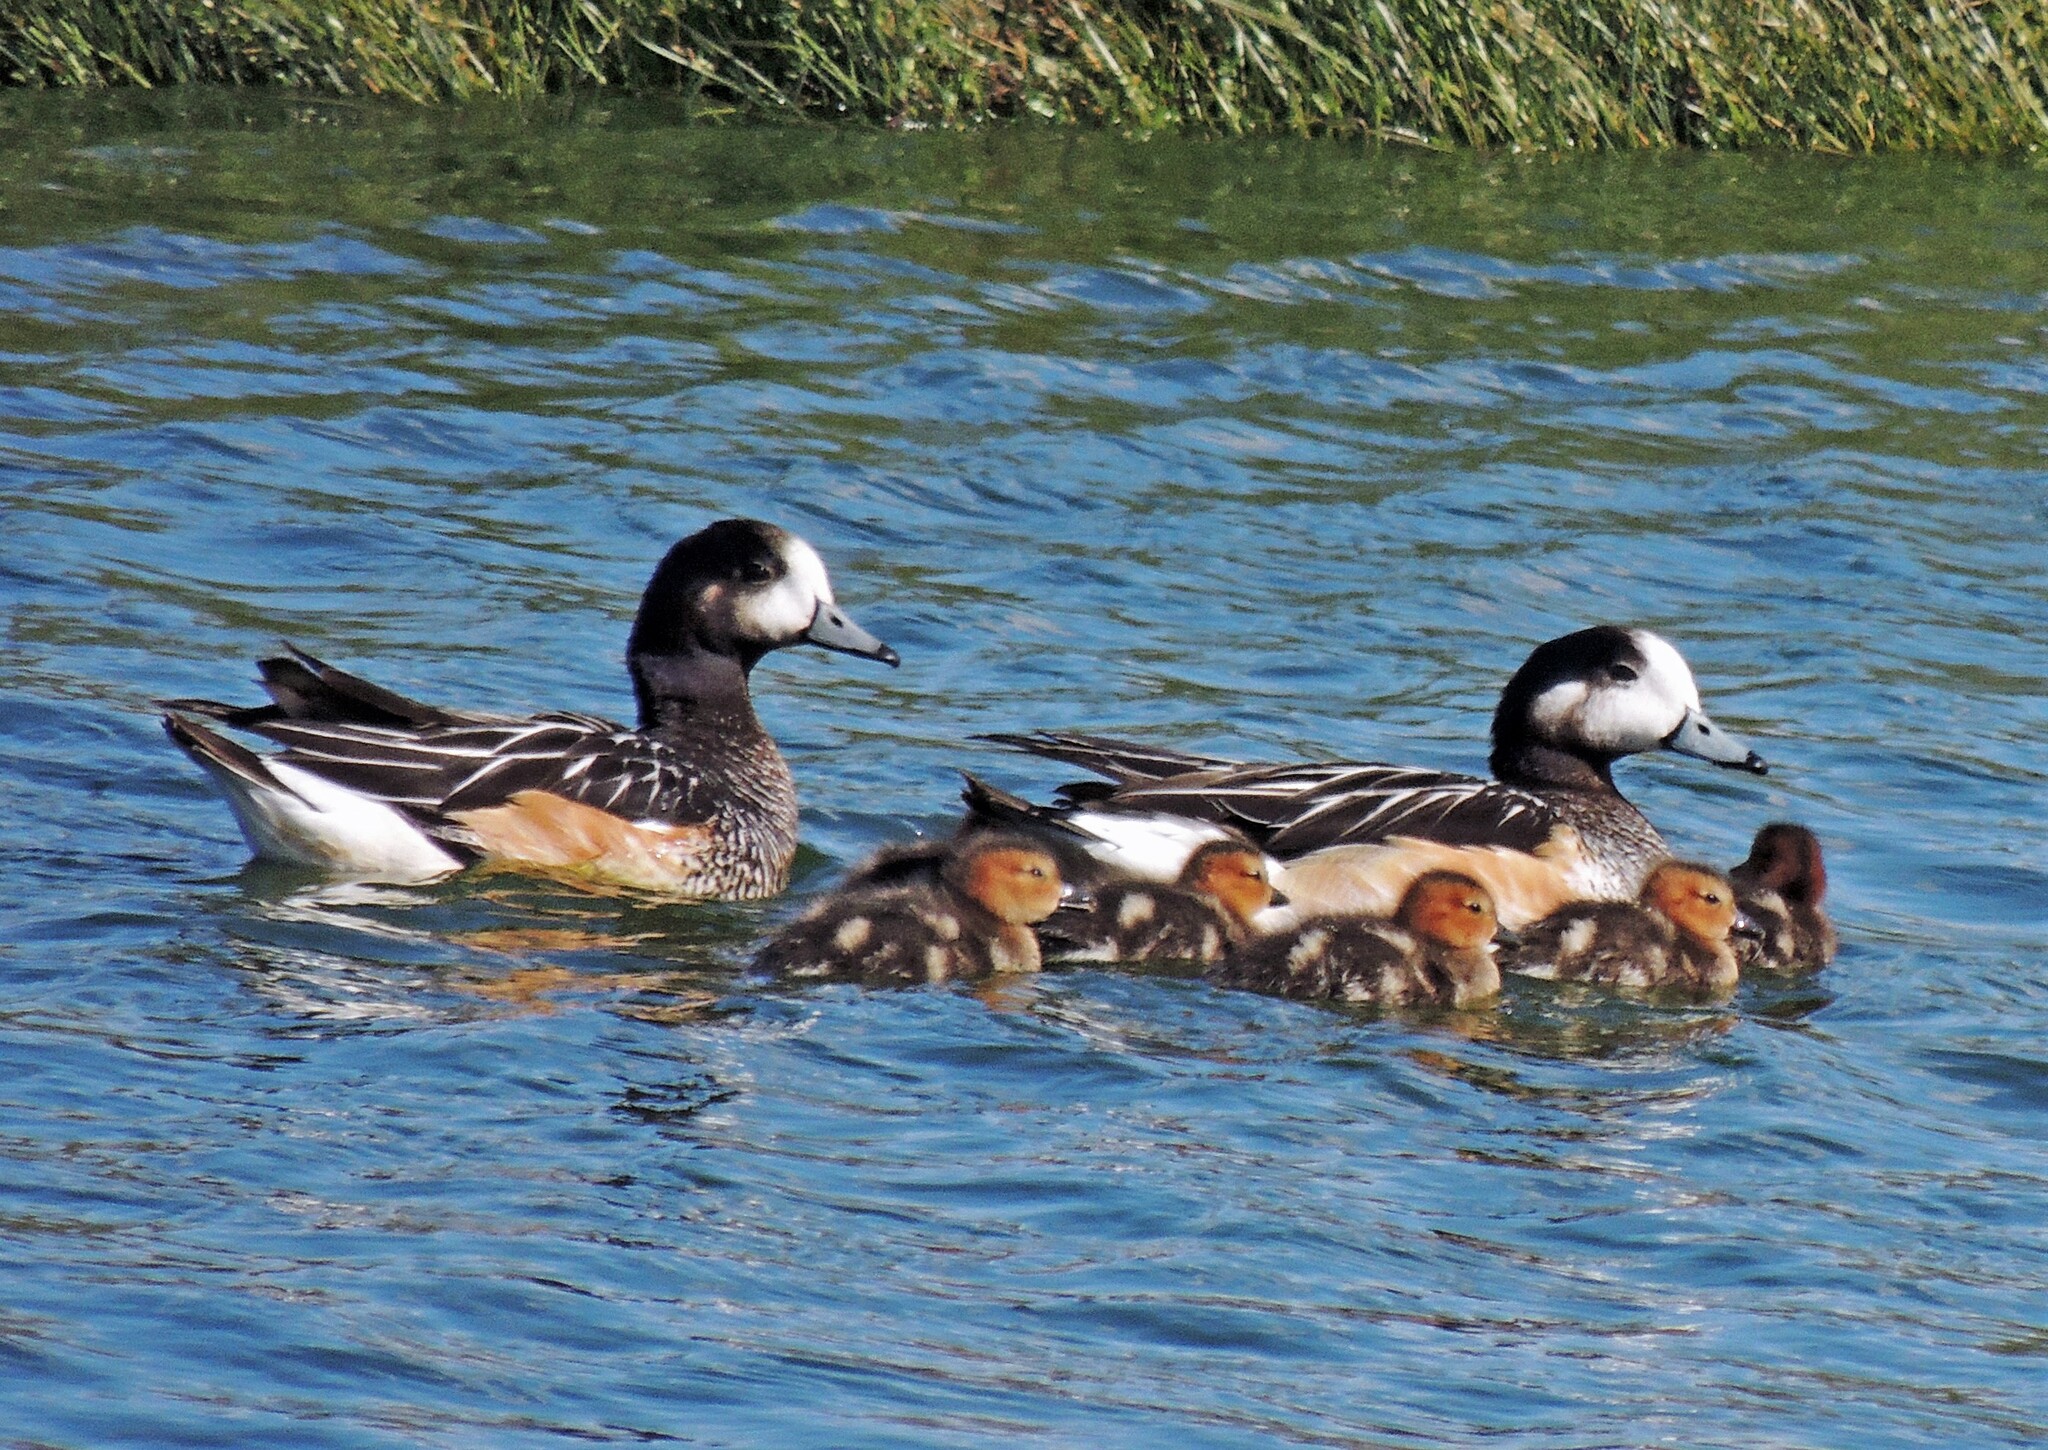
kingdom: Animalia
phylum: Chordata
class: Aves
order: Anseriformes
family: Anatidae
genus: Mareca
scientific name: Mareca sibilatrix
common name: Chiloe wigeon
